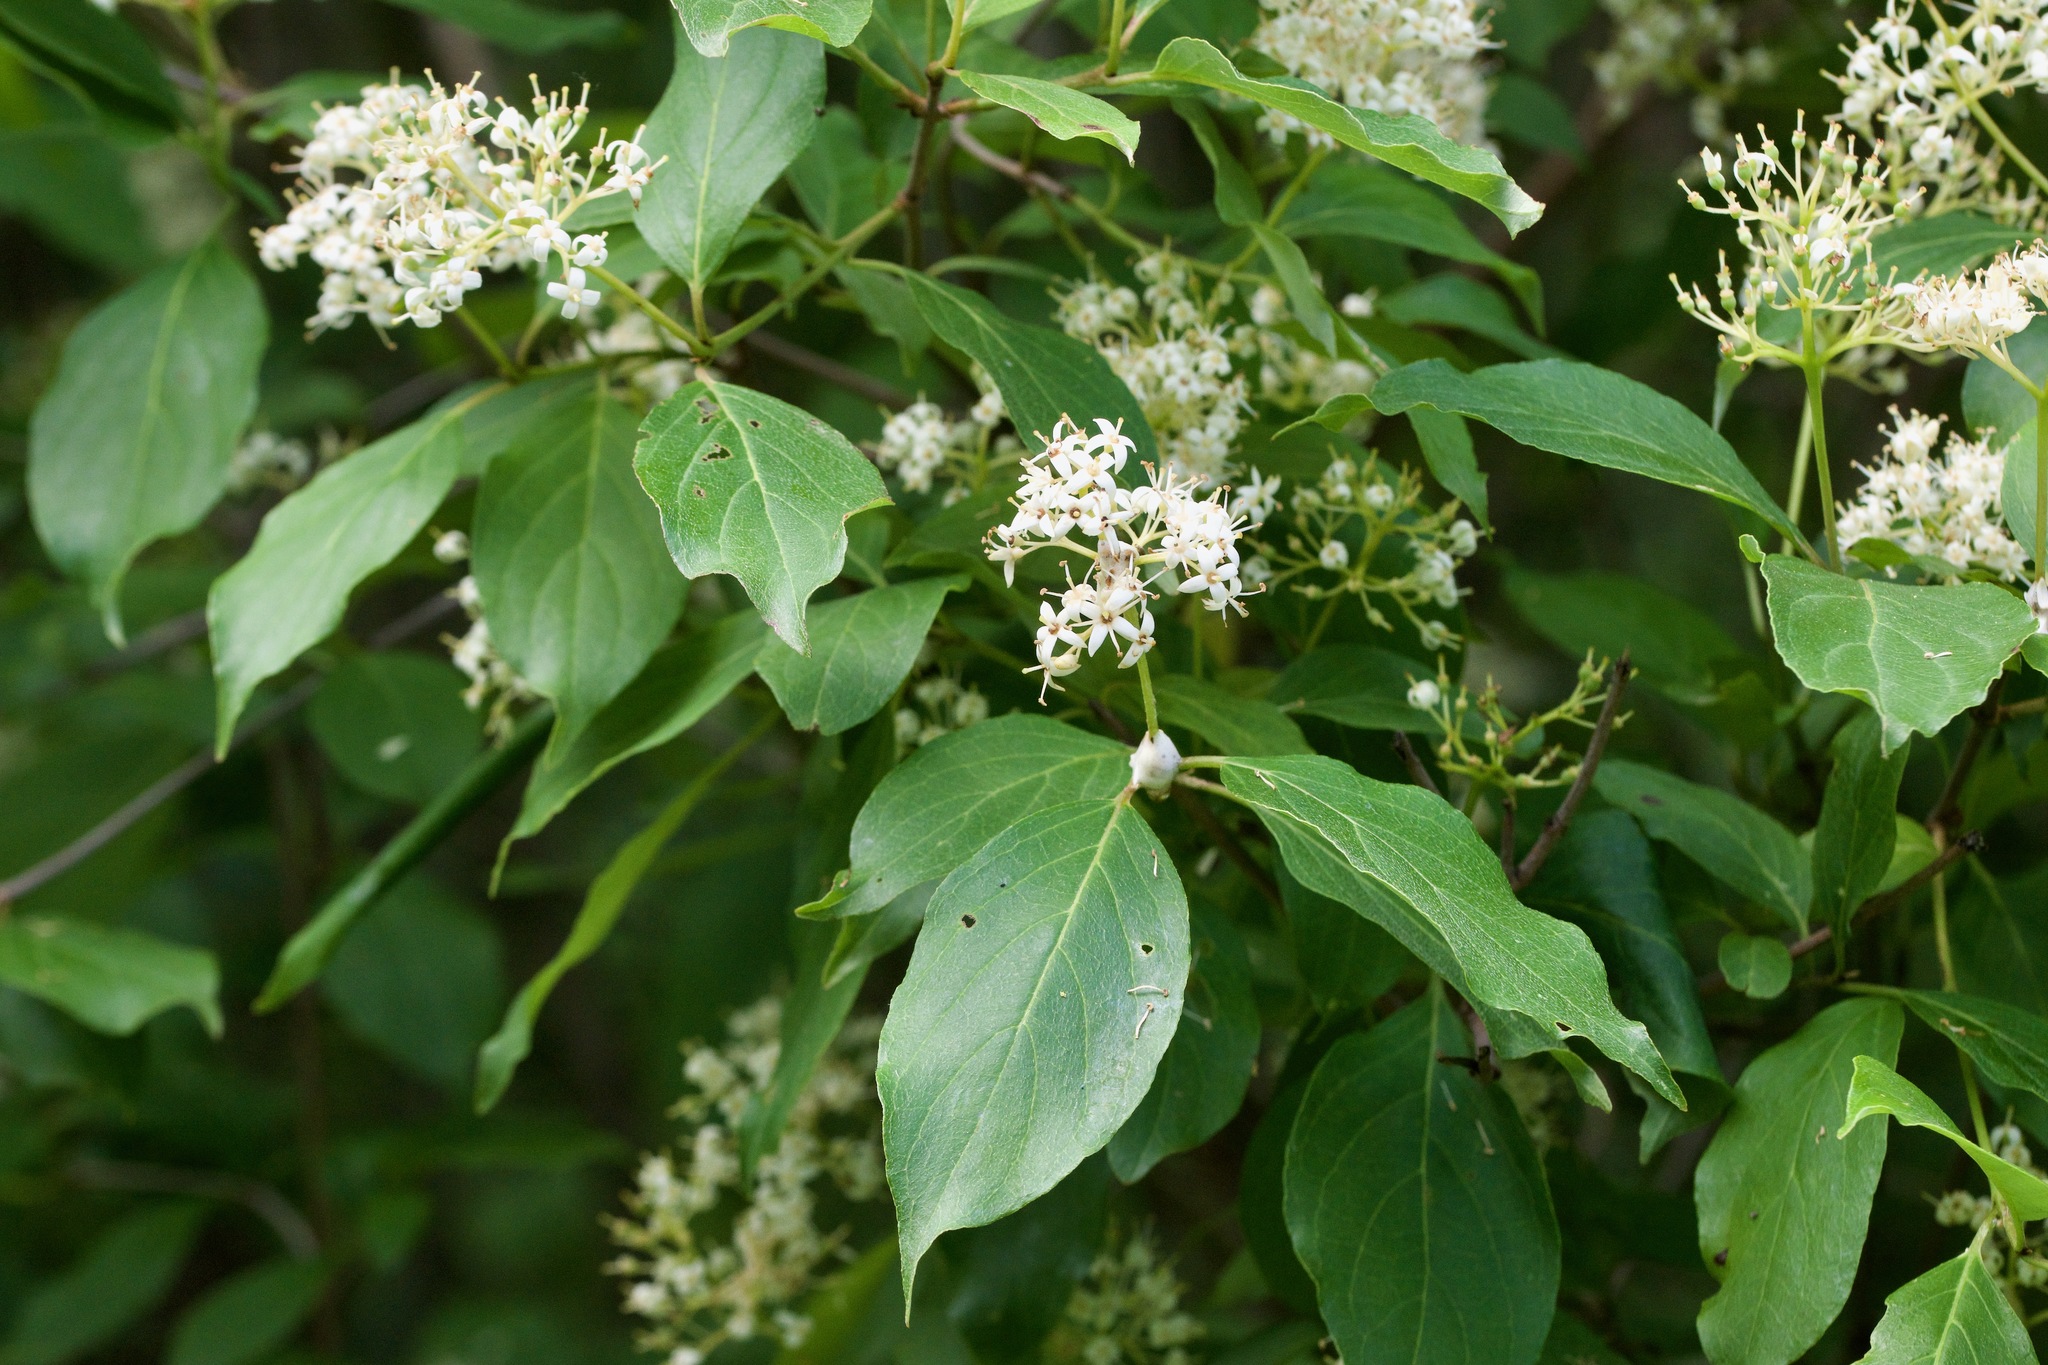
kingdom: Plantae
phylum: Tracheophyta
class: Magnoliopsida
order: Cornales
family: Cornaceae
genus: Cornus
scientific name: Cornus racemosa
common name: Panicled dogwood
